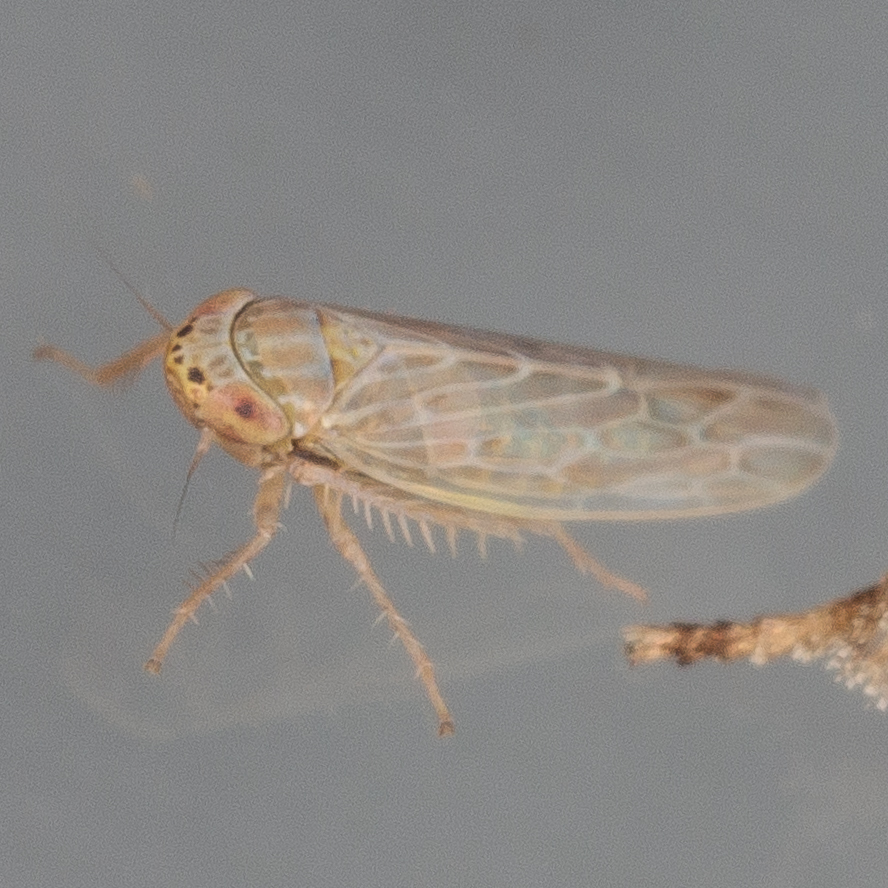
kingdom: Animalia
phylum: Arthropoda
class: Insecta
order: Hemiptera
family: Cicadellidae
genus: Graminella
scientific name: Graminella sonora
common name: Lesser lawn leafhopper
